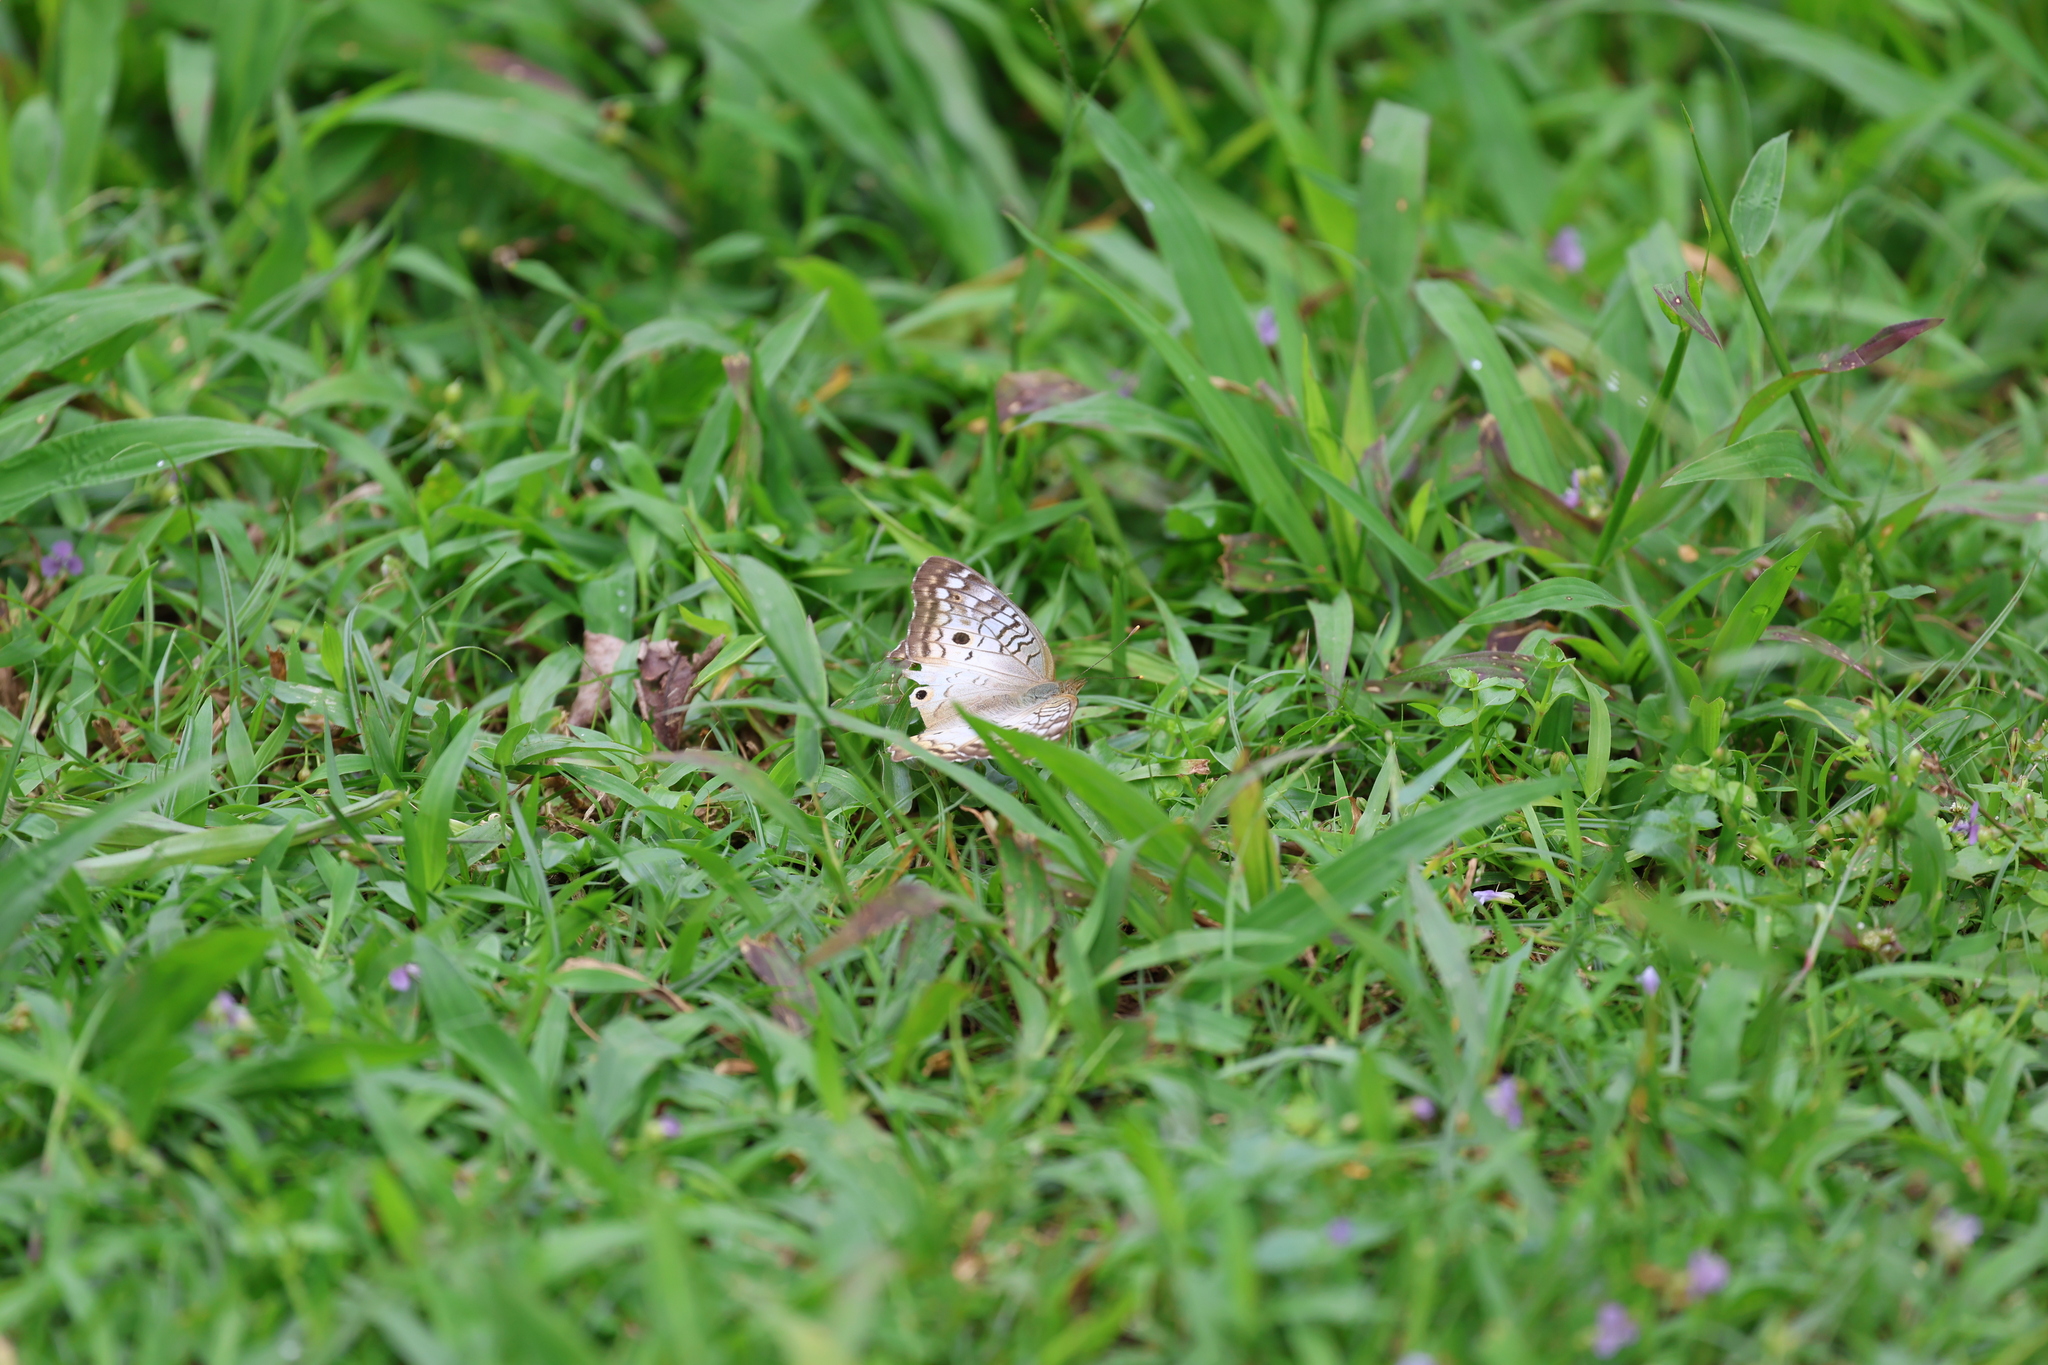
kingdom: Animalia
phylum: Arthropoda
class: Insecta
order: Lepidoptera
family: Nymphalidae
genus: Anartia
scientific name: Anartia jatrophae
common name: White peacock
